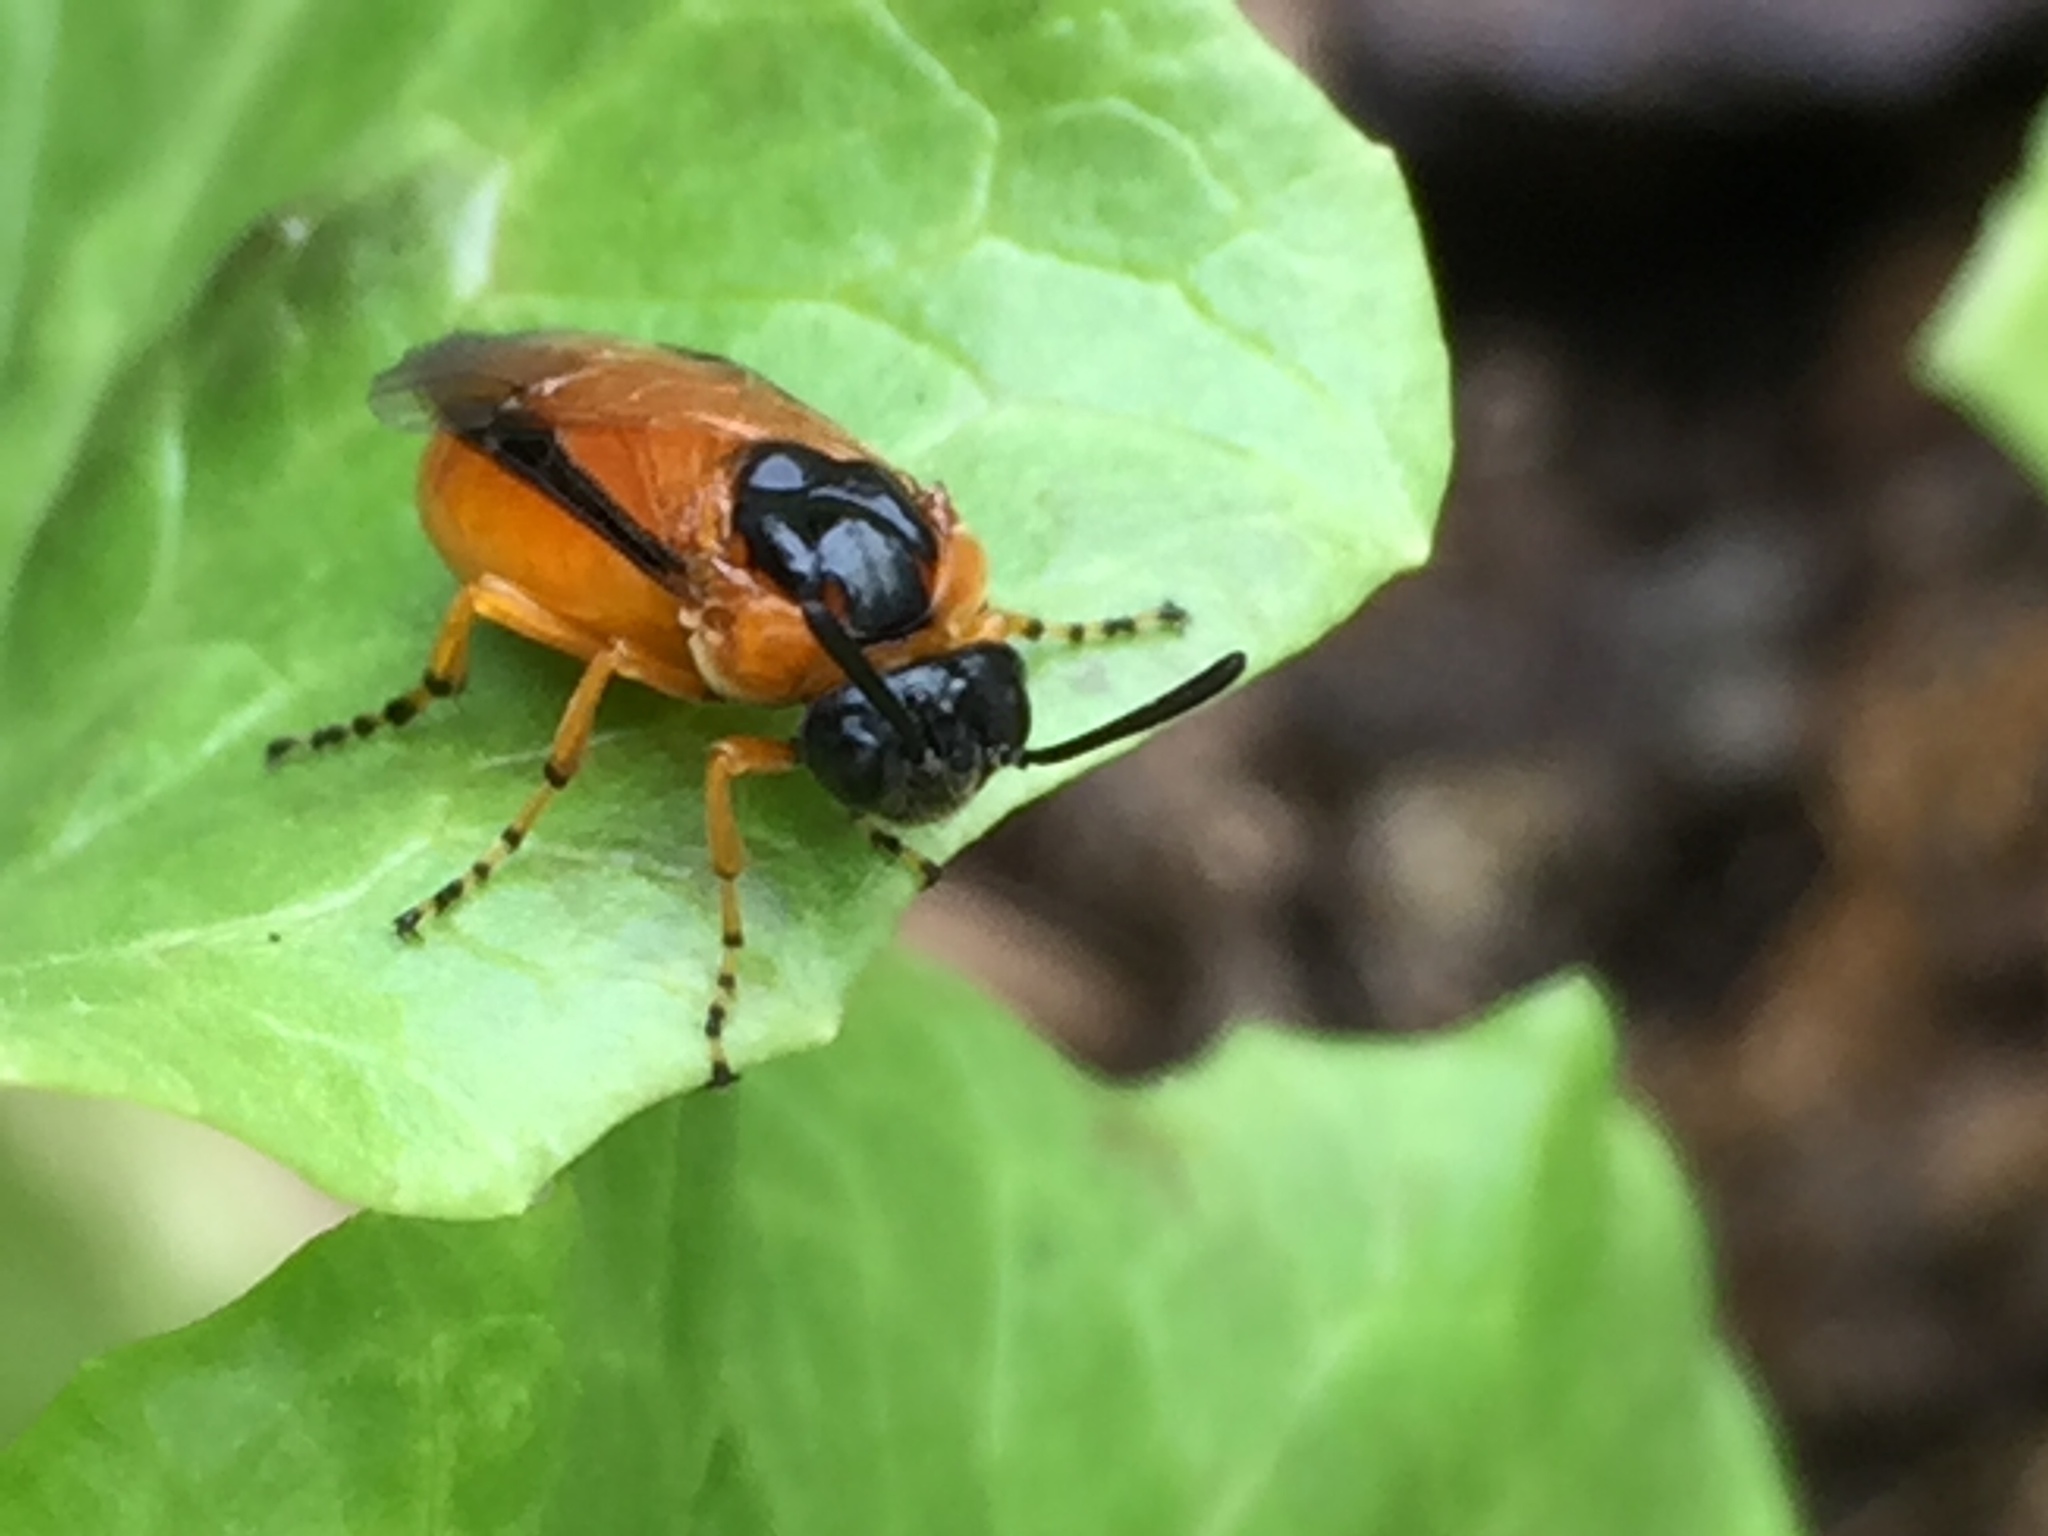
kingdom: Animalia
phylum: Arthropoda
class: Insecta
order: Hymenoptera
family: Argidae
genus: Arge
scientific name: Arge ochropus
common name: Argid sawfly
